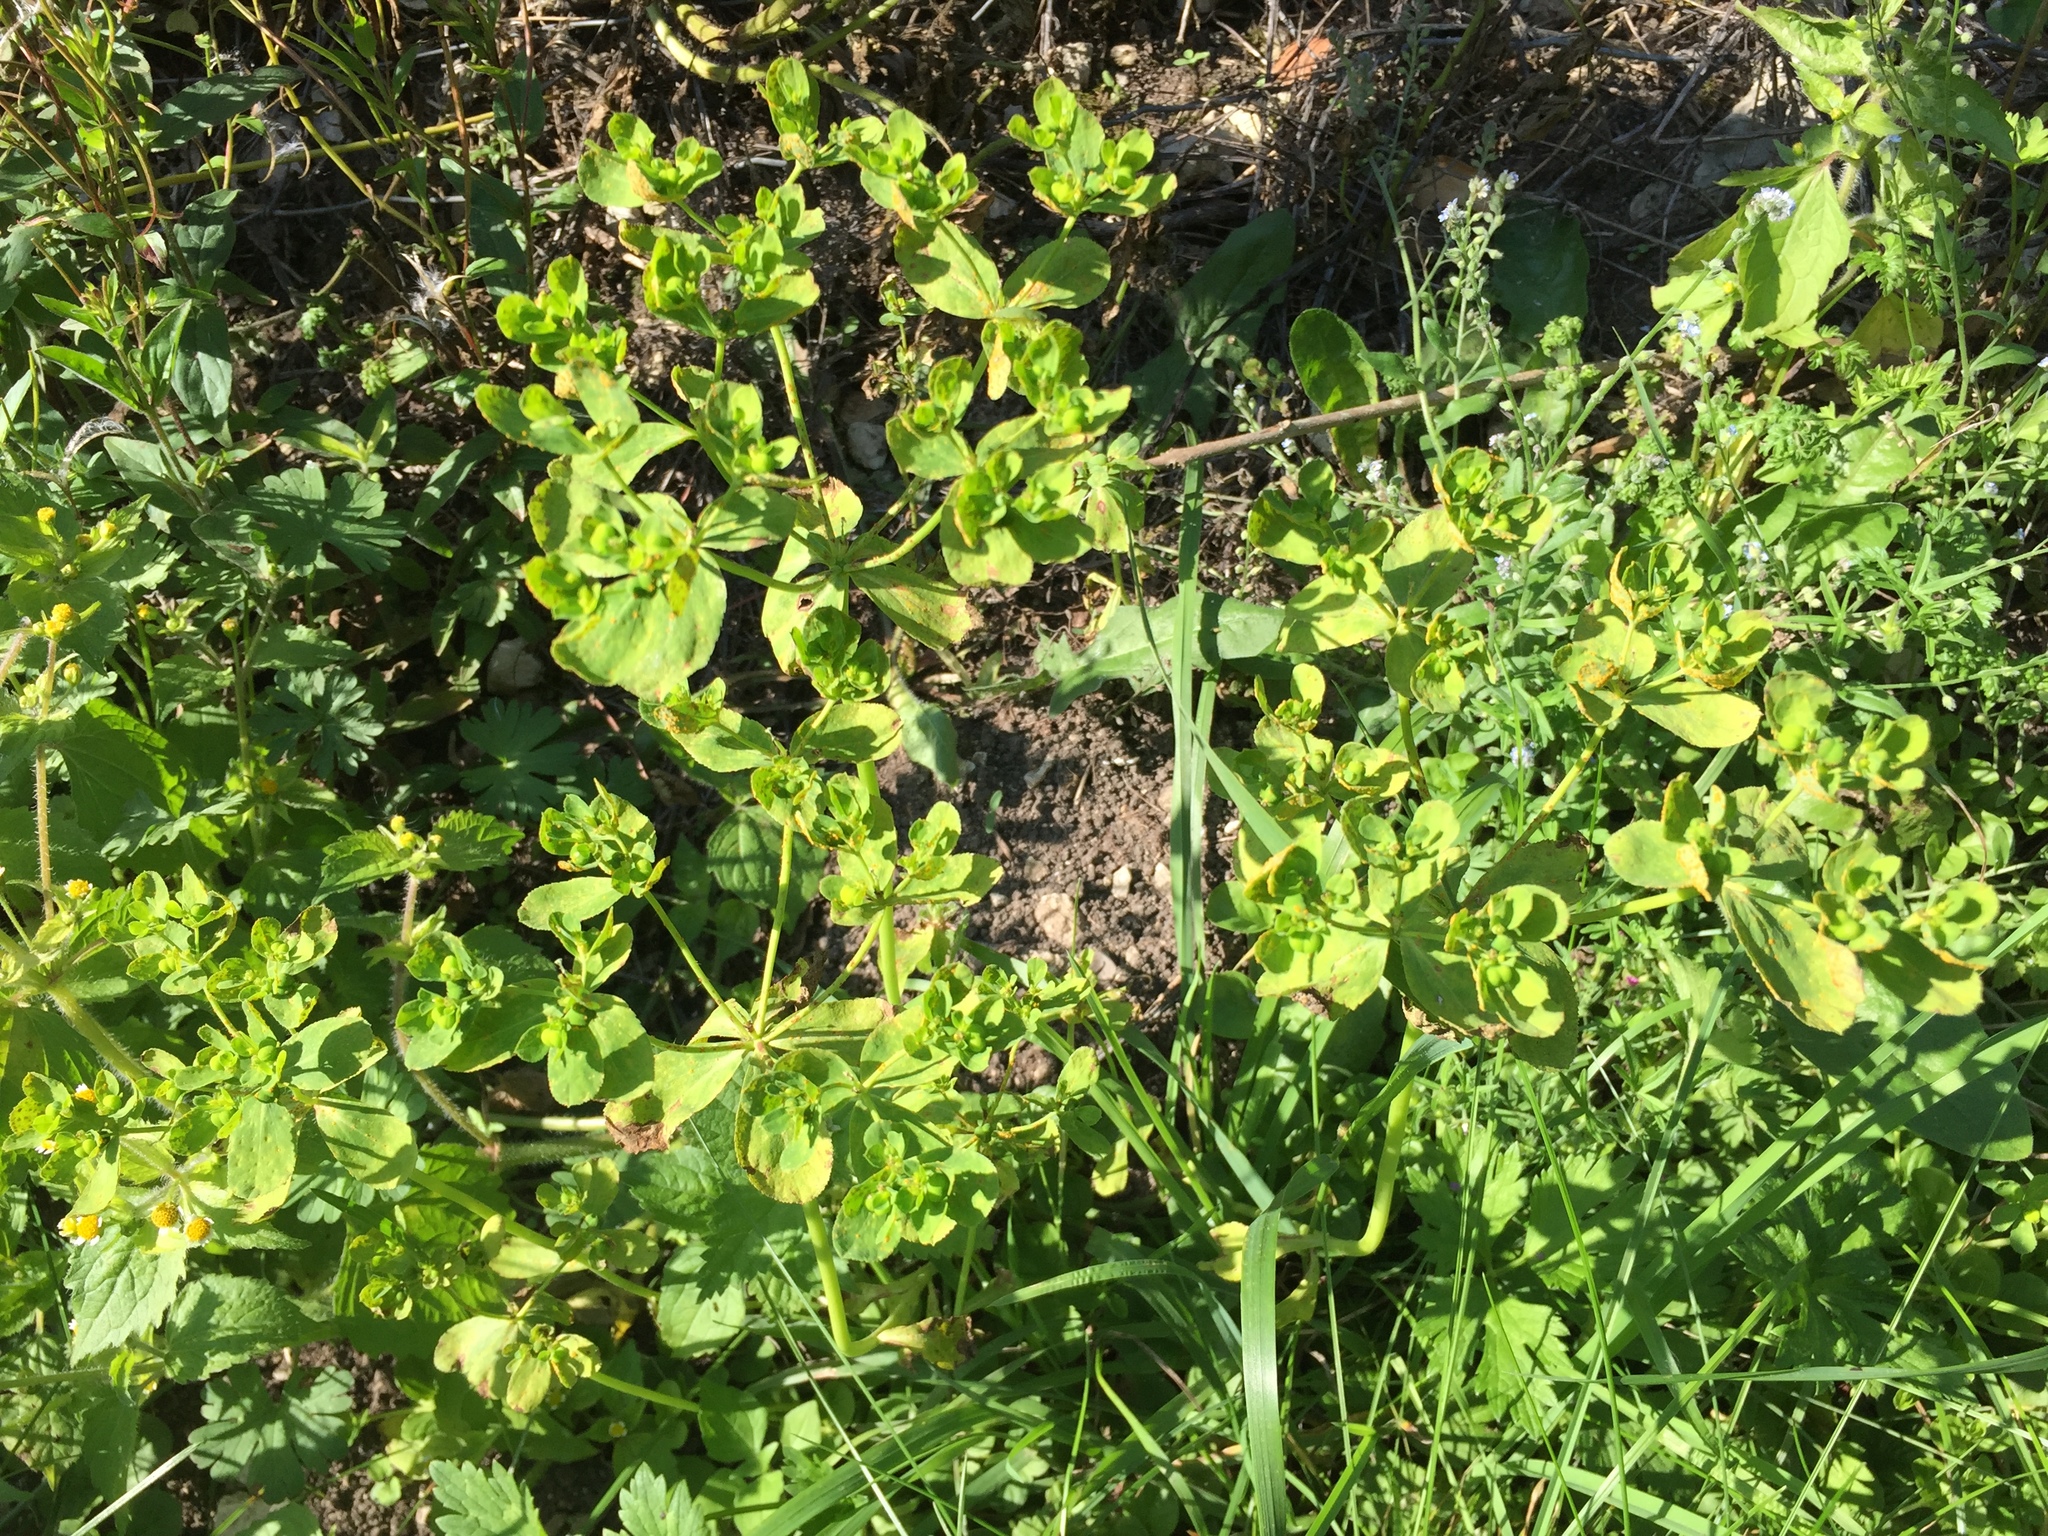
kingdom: Plantae
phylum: Tracheophyta
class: Magnoliopsida
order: Malpighiales
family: Euphorbiaceae
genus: Euphorbia
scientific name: Euphorbia helioscopia
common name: Sun spurge
